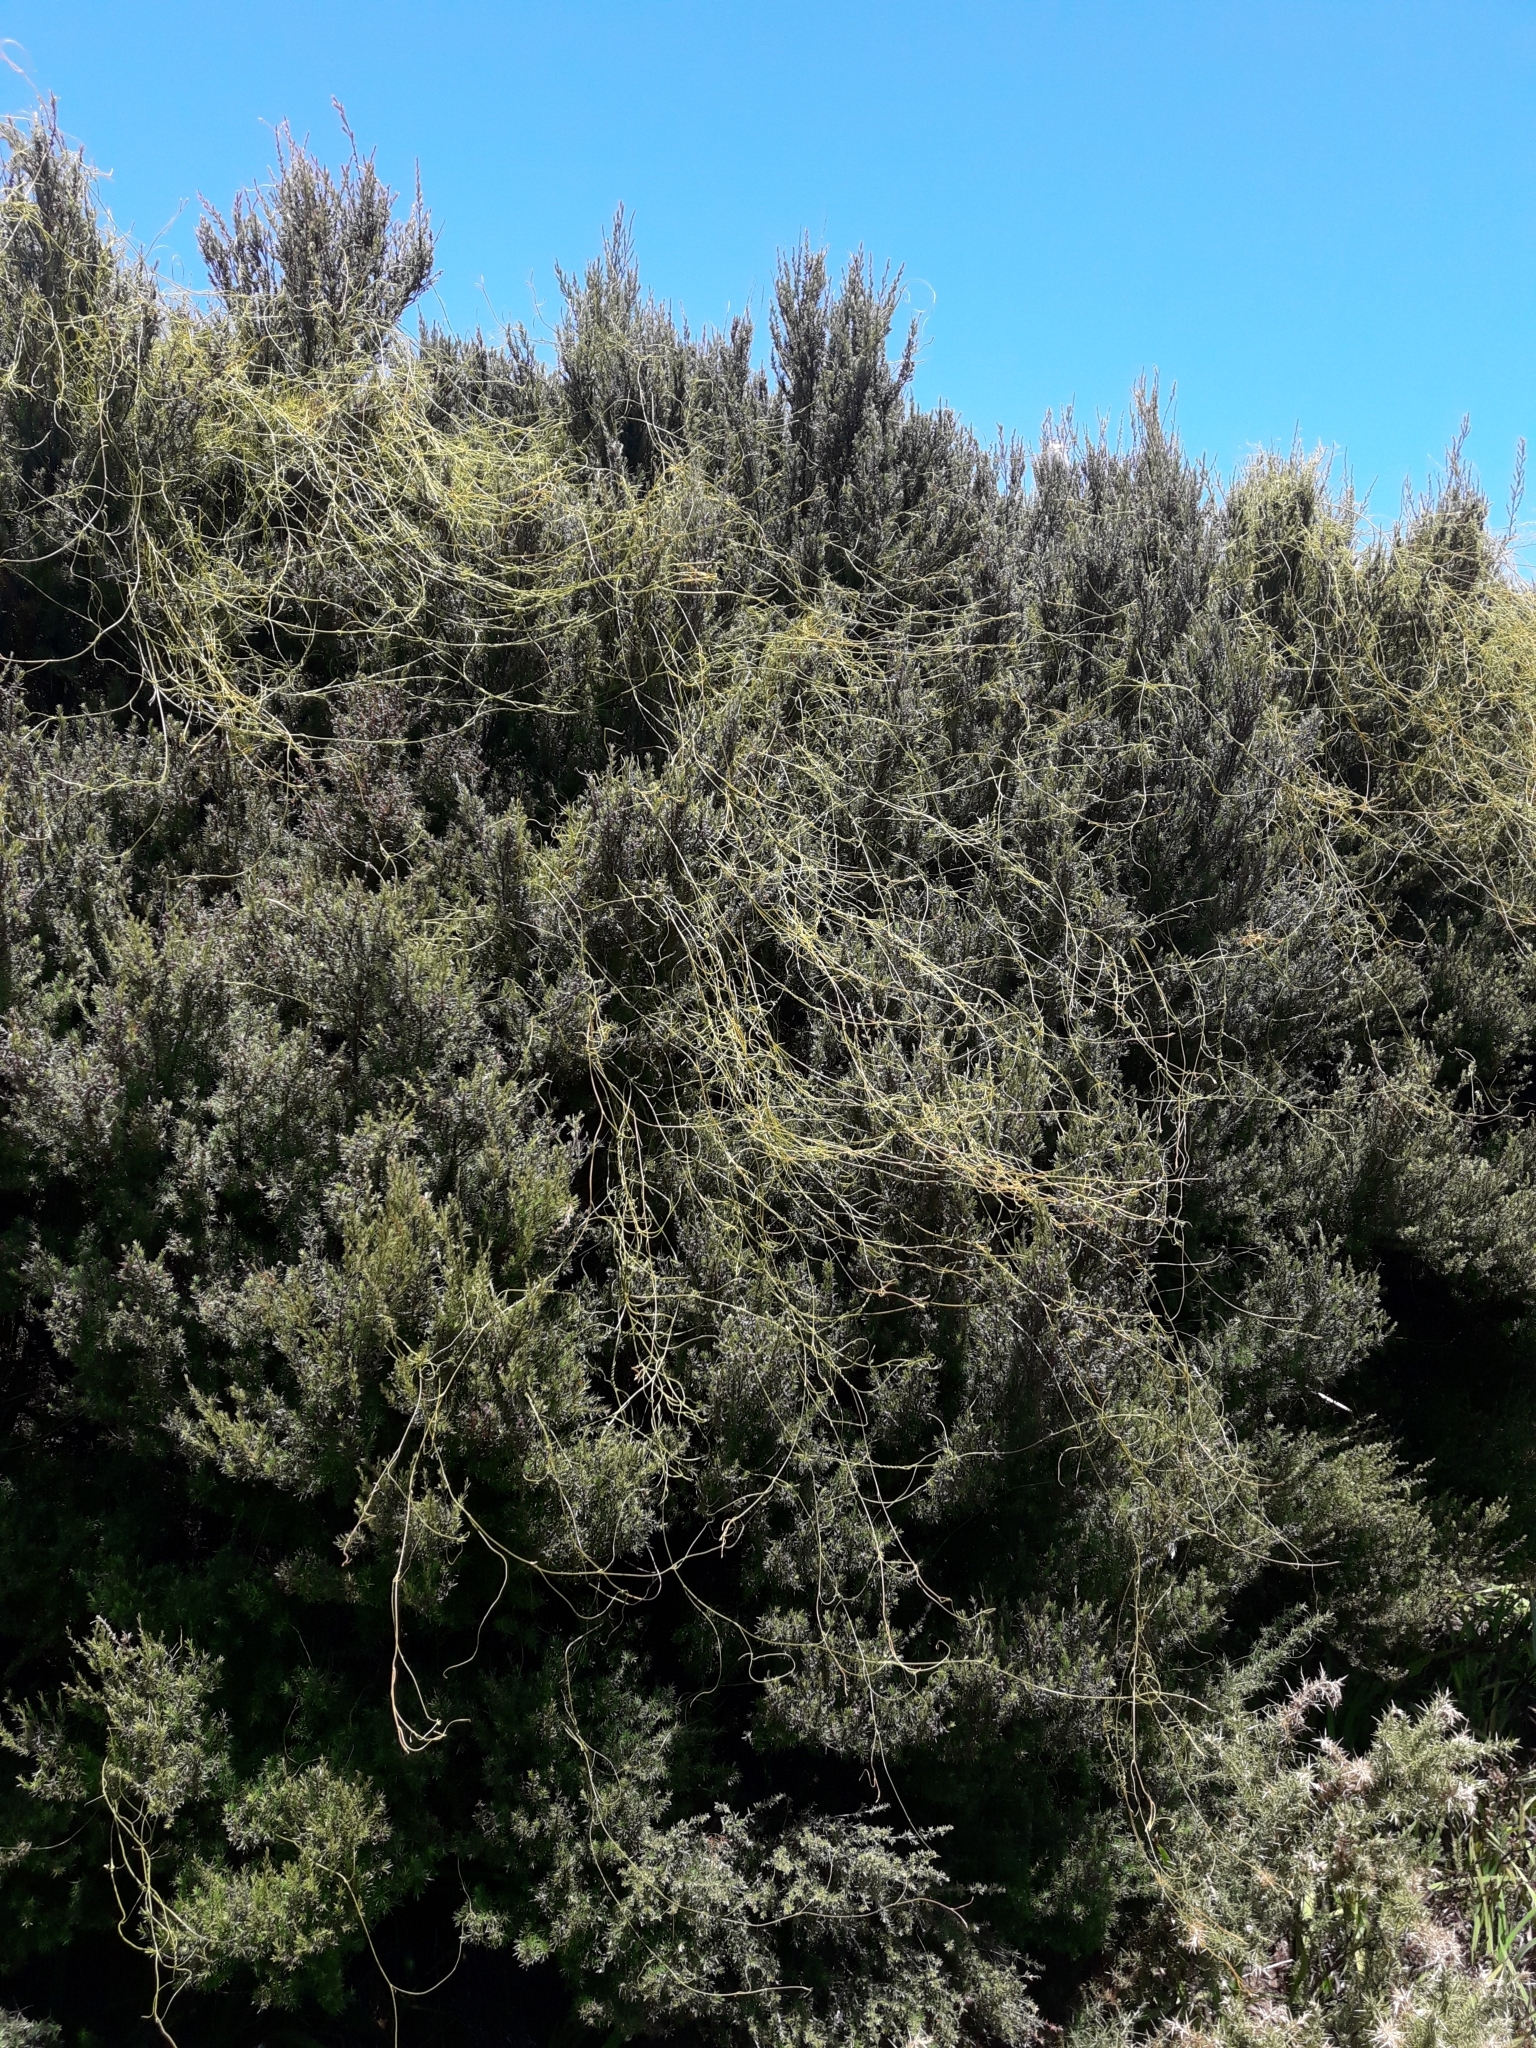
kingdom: Plantae
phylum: Tracheophyta
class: Magnoliopsida
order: Laurales
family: Lauraceae
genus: Cassytha
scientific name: Cassytha paniculata
